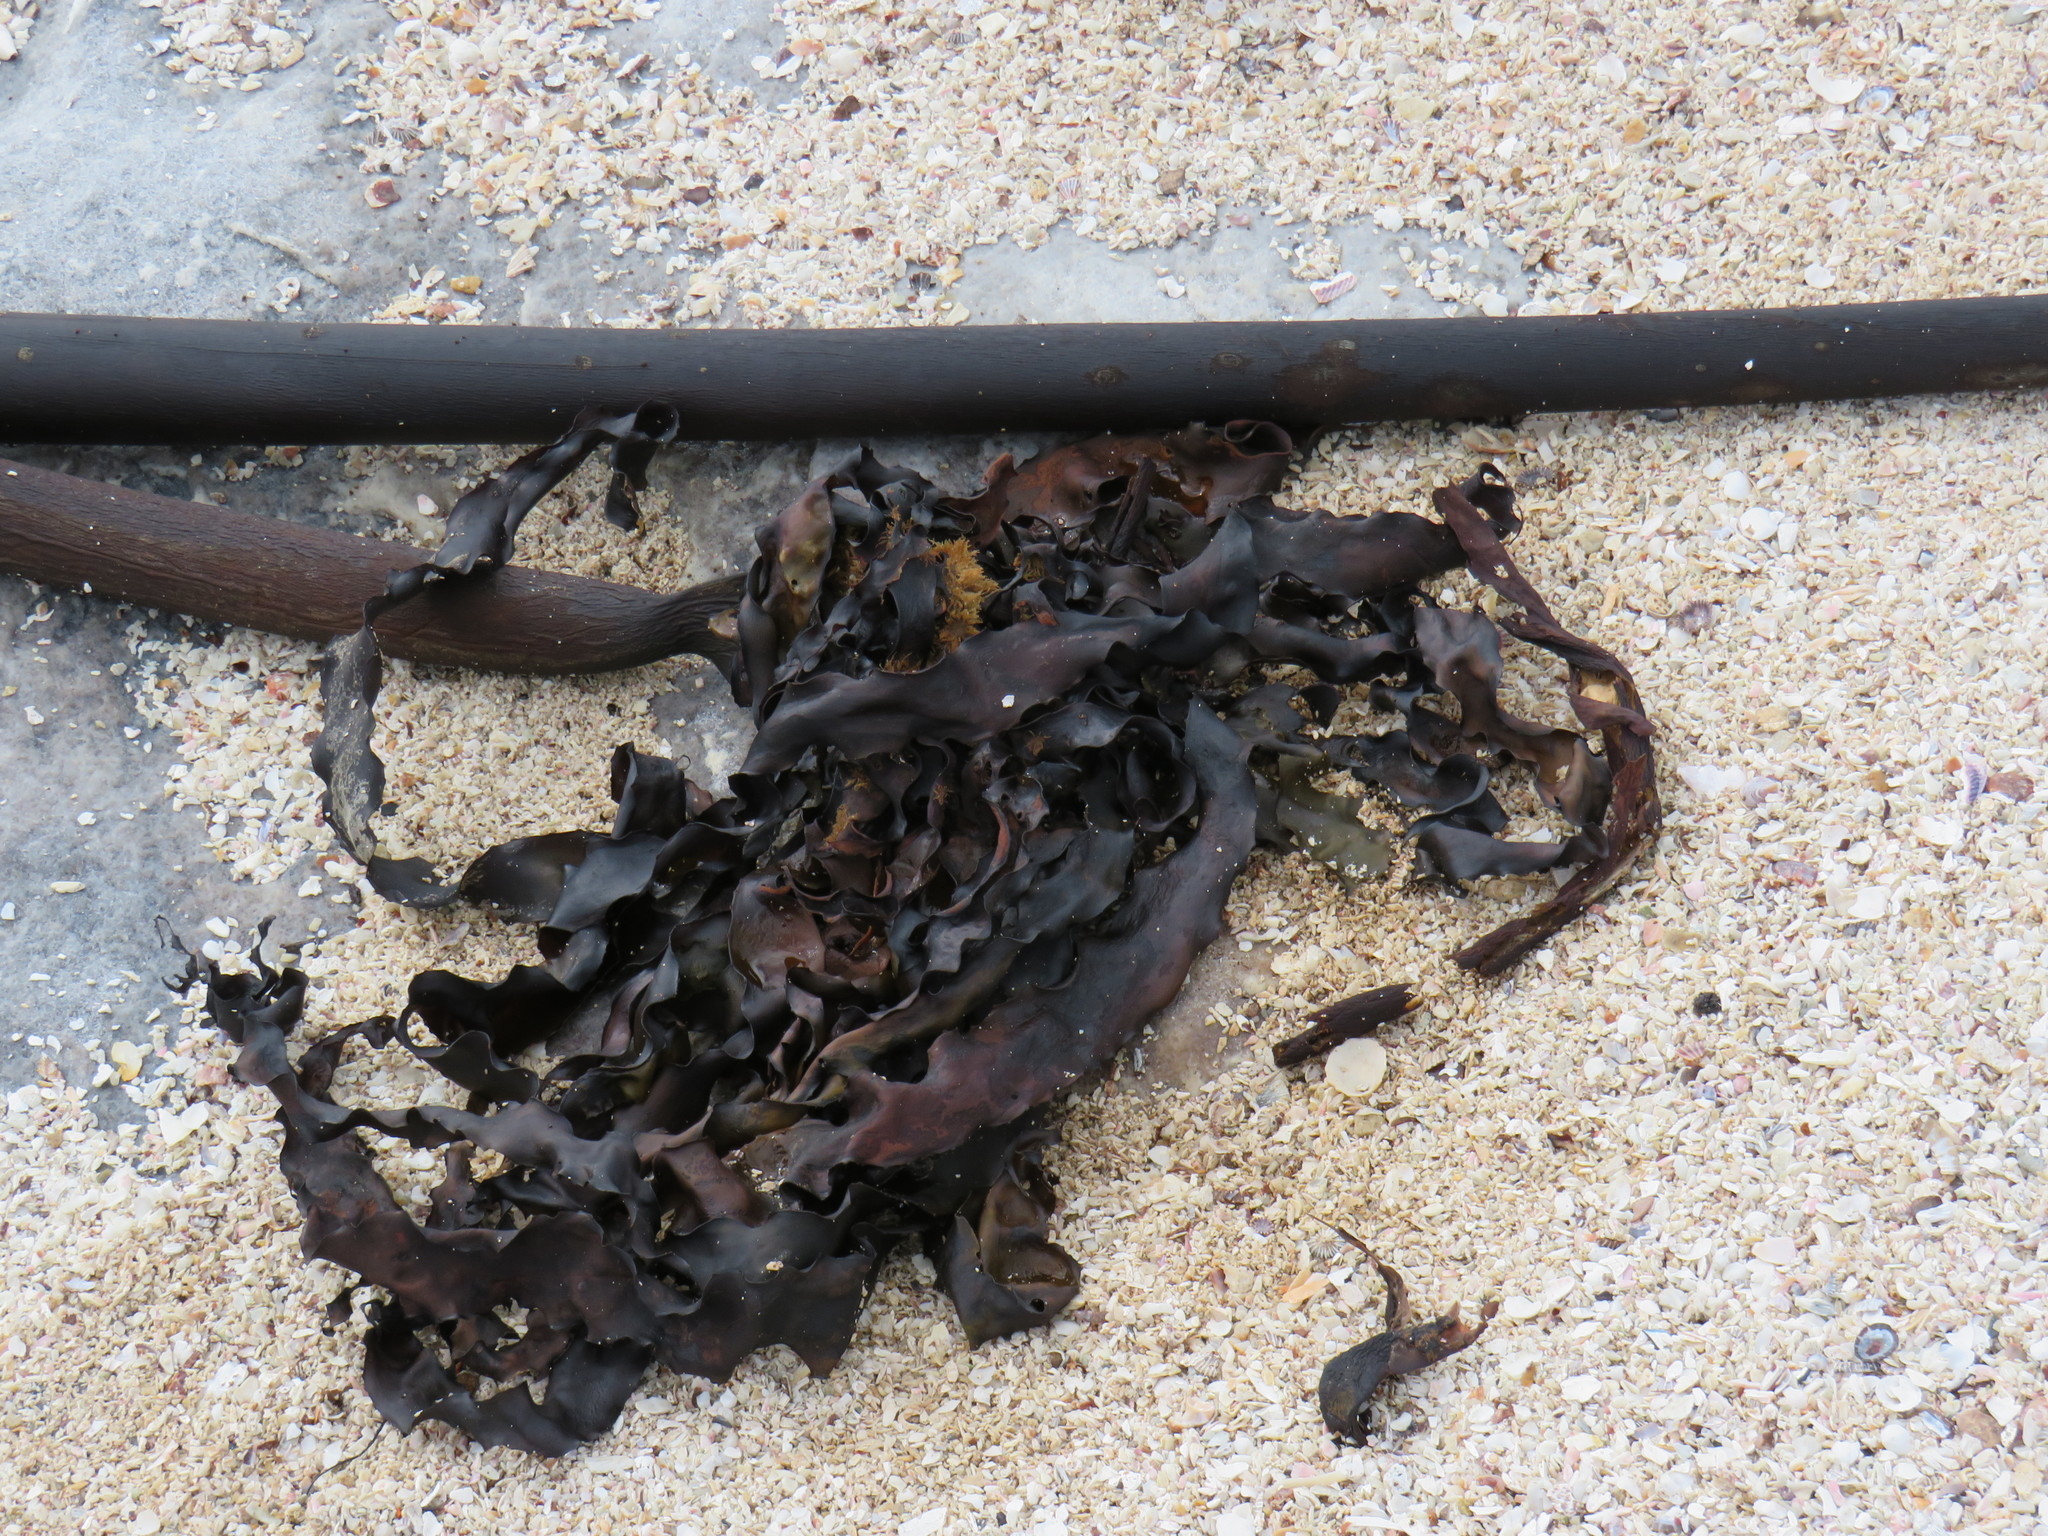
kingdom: Animalia
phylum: Arthropoda
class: Malacostraca
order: Amphipoda
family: Talitridae
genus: Capeorchestia
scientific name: Capeorchestia capensis
